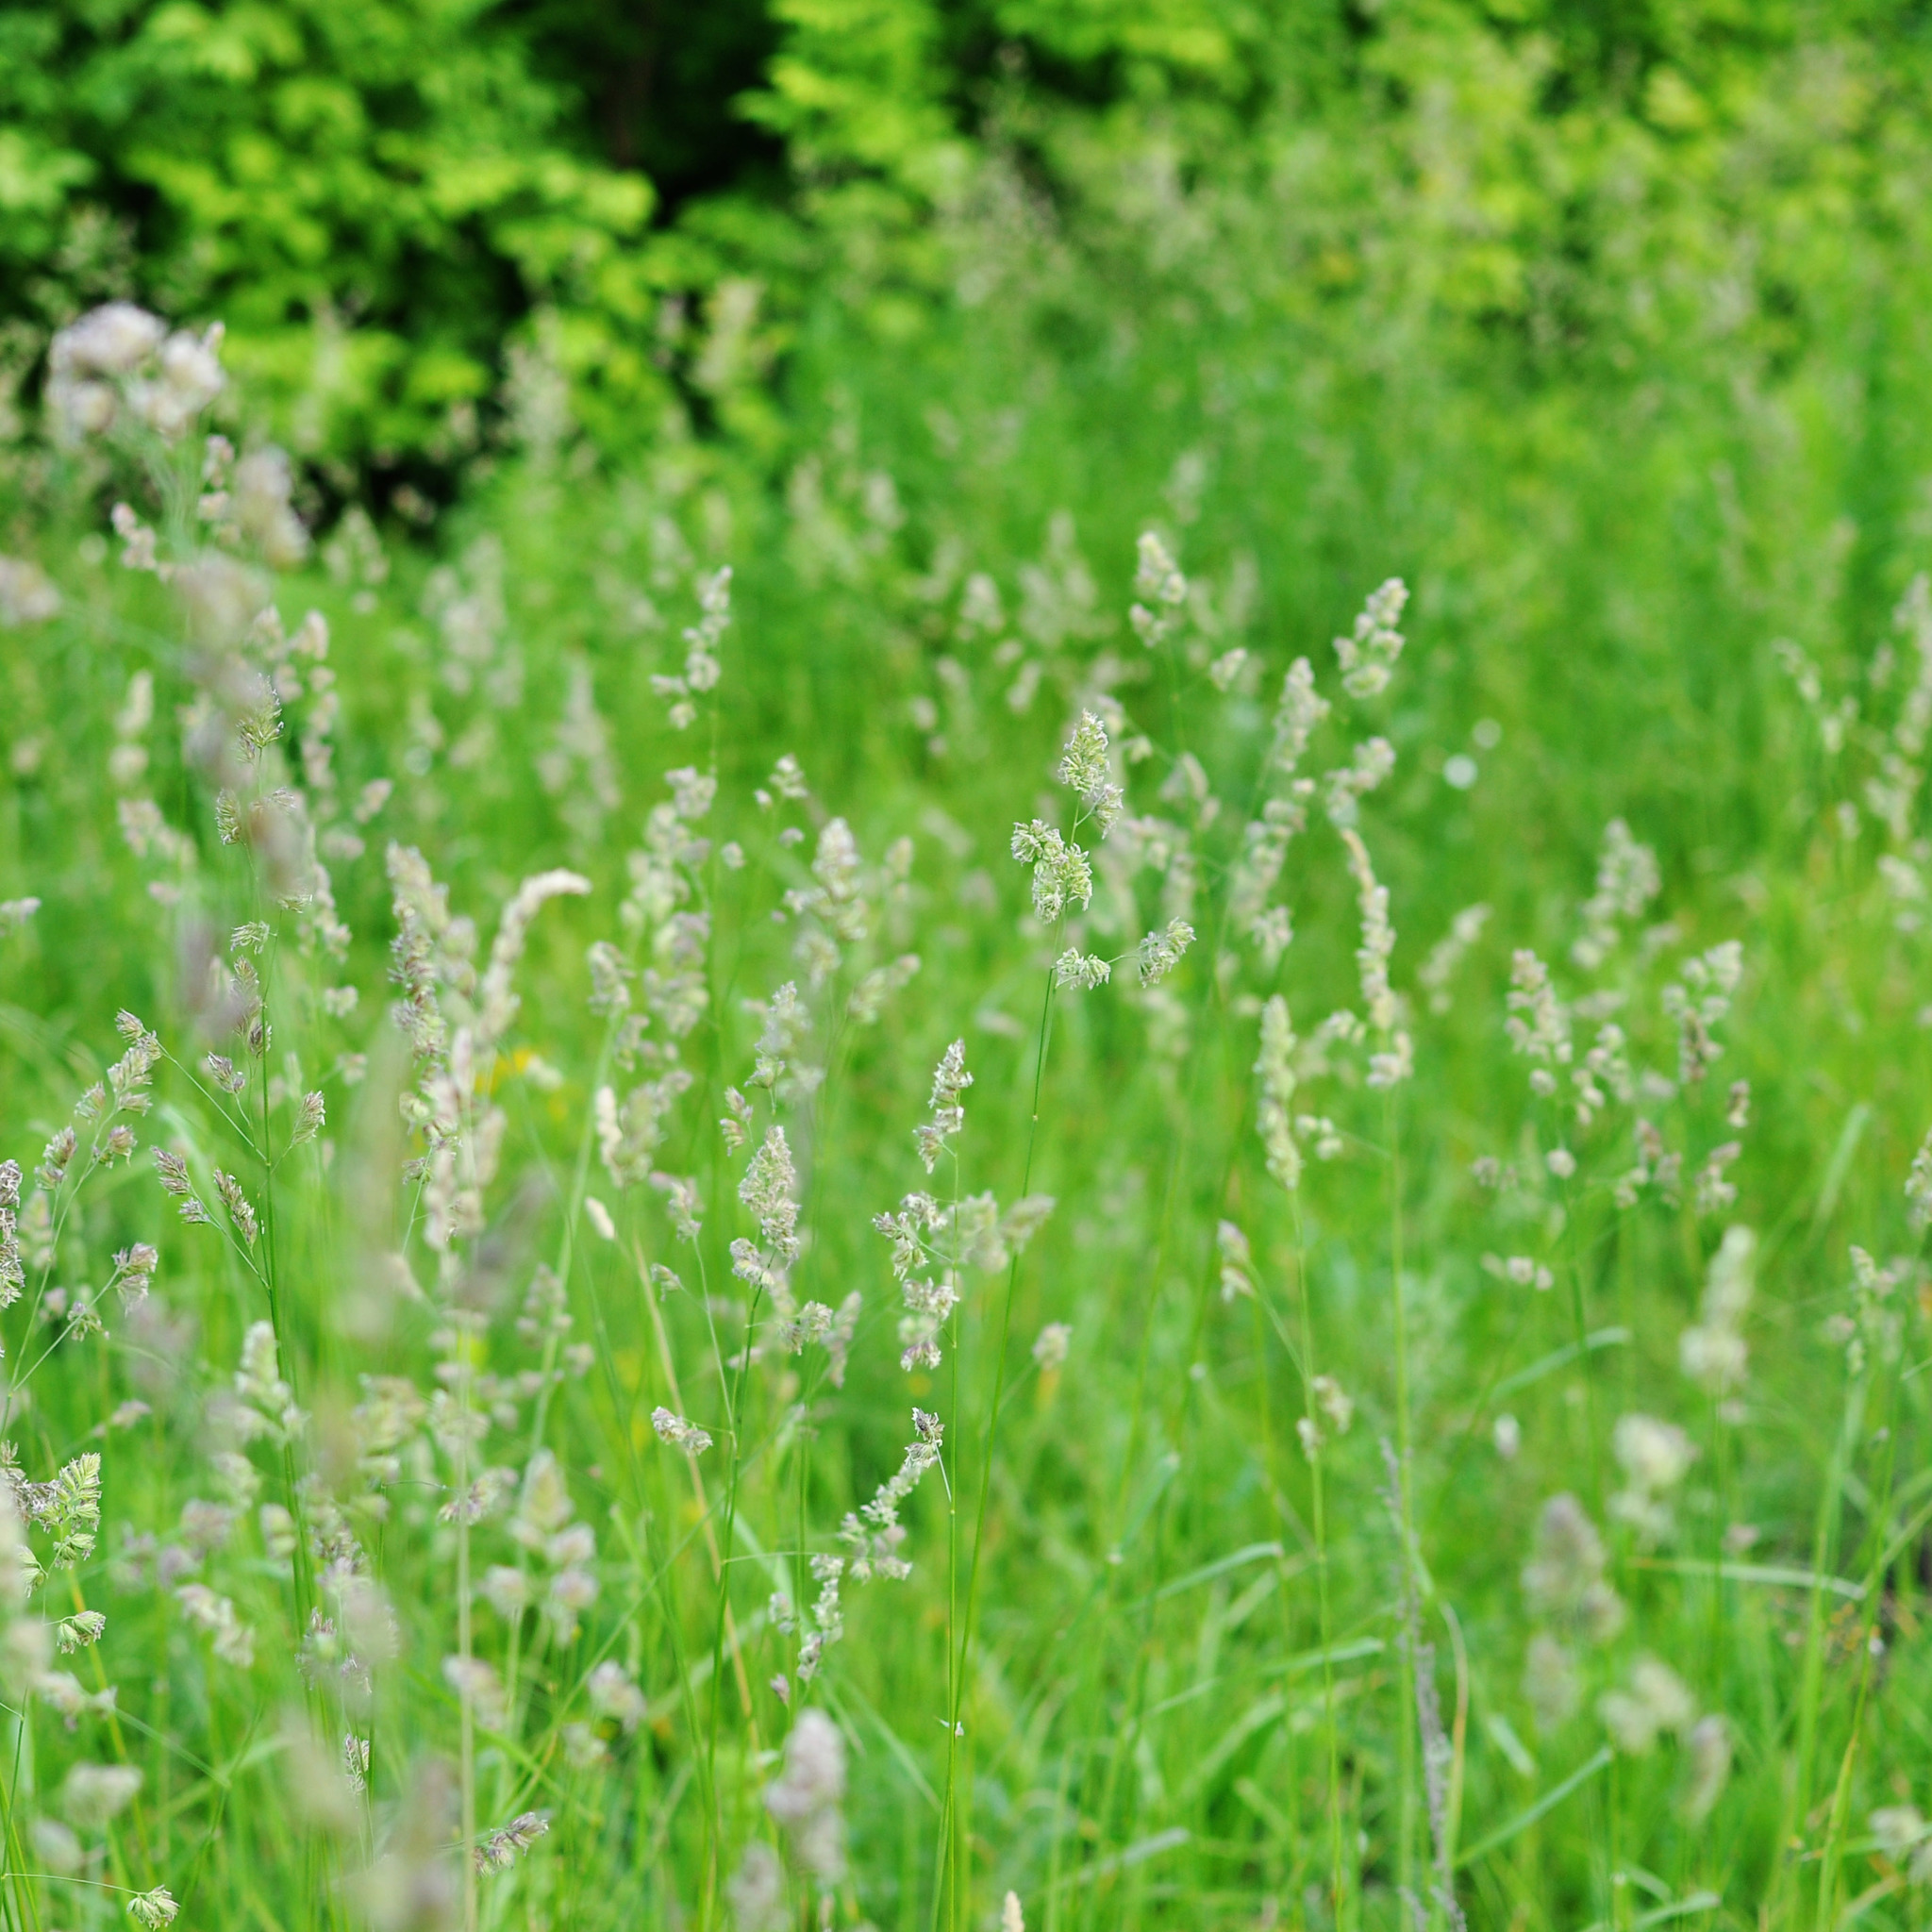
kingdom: Plantae
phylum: Tracheophyta
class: Liliopsida
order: Poales
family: Poaceae
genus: Dactylis
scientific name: Dactylis glomerata
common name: Orchardgrass
